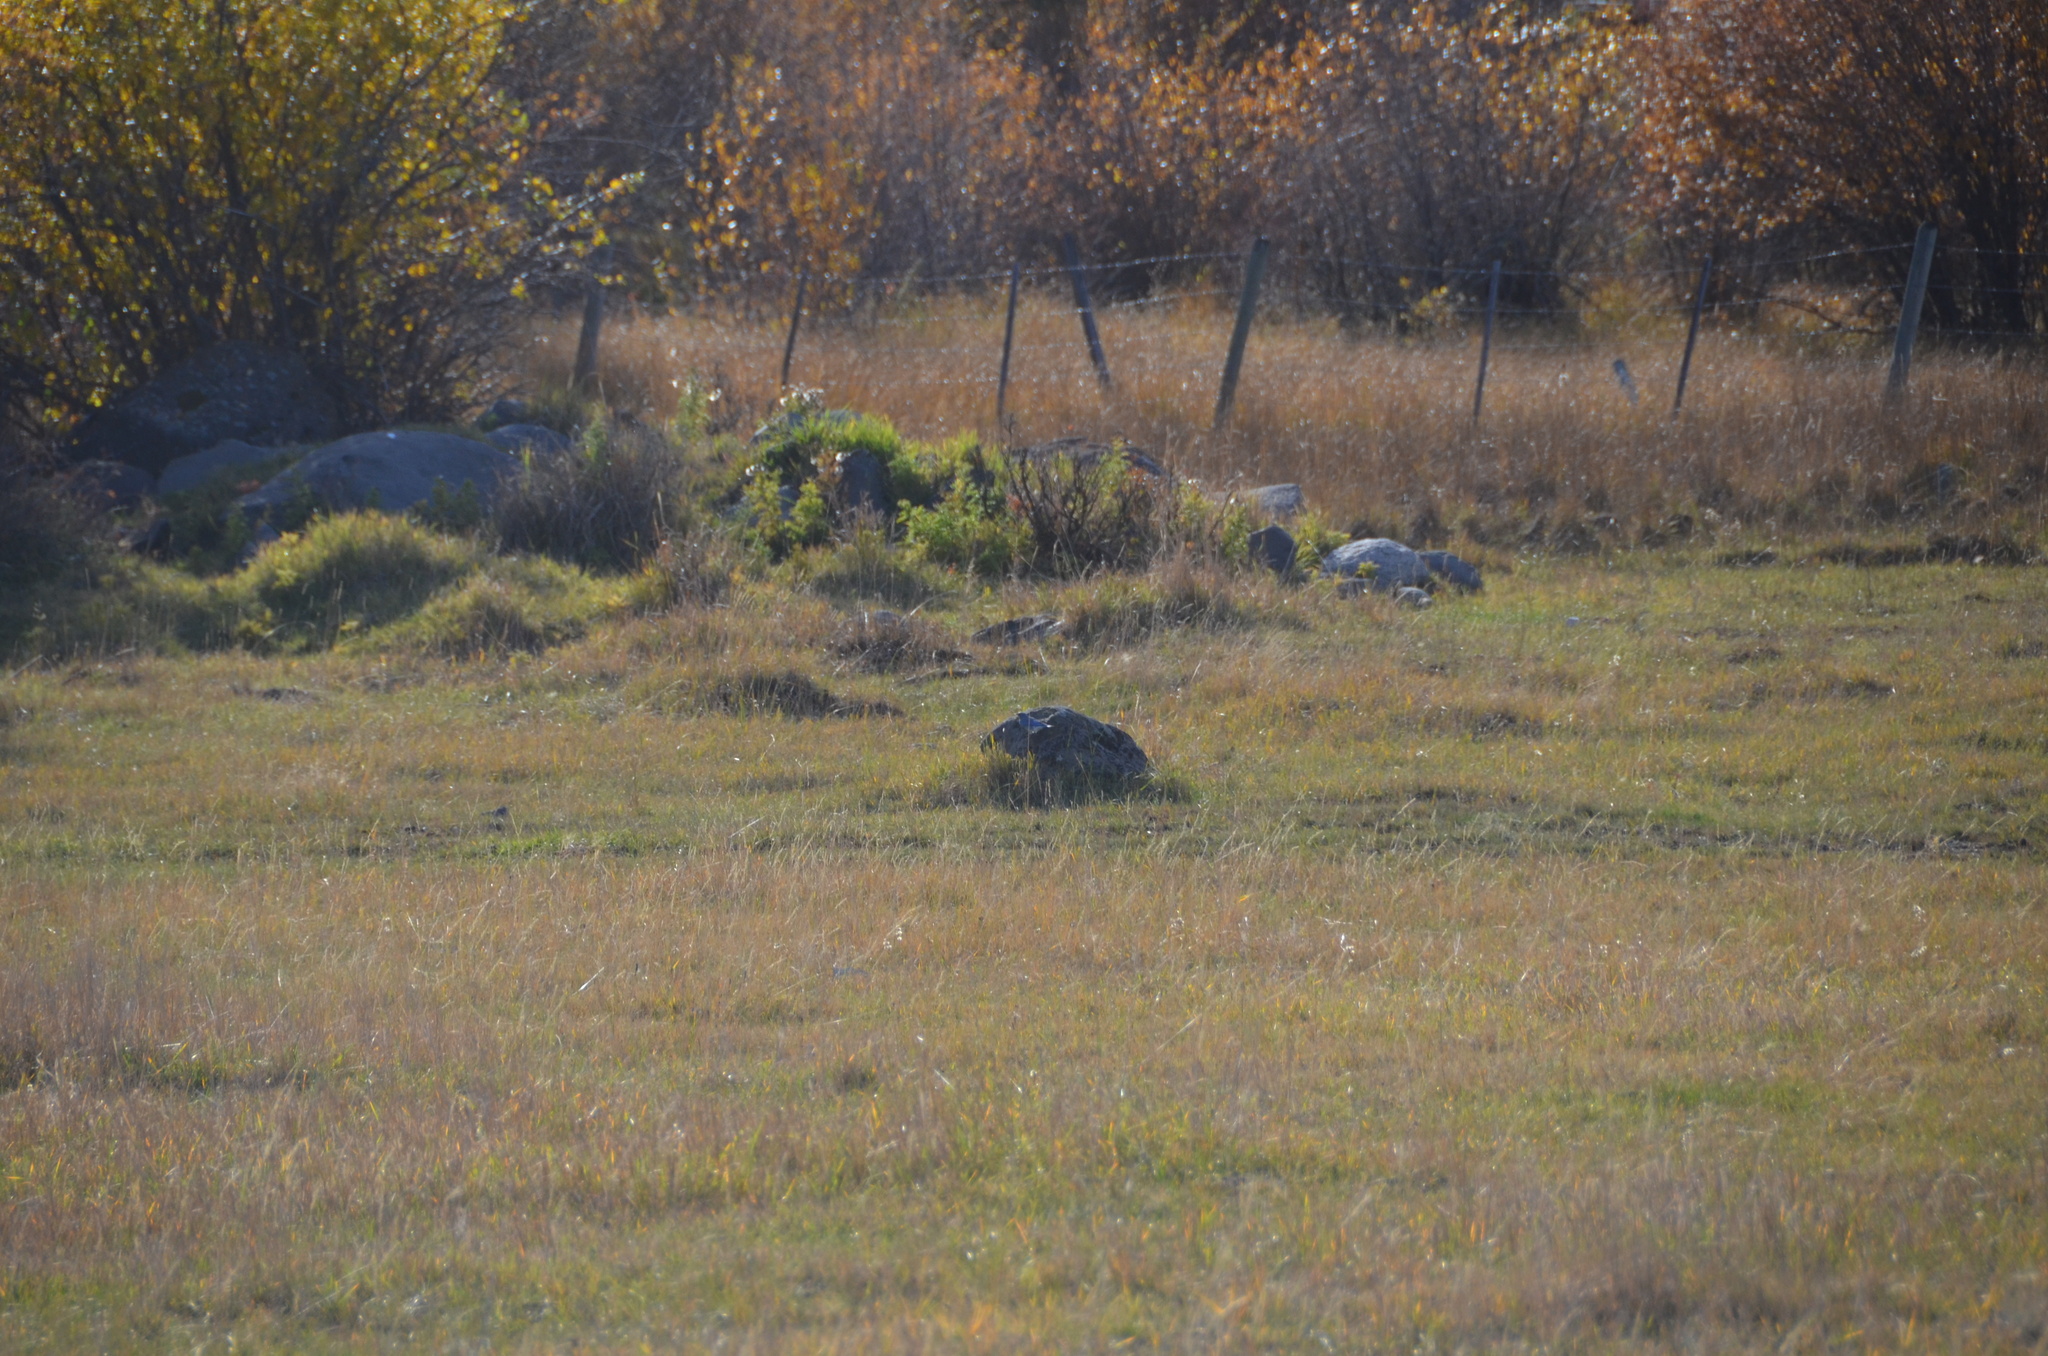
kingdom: Animalia
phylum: Chordata
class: Aves
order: Passeriformes
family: Turdidae
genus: Sialia
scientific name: Sialia currucoides
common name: Mountain bluebird
